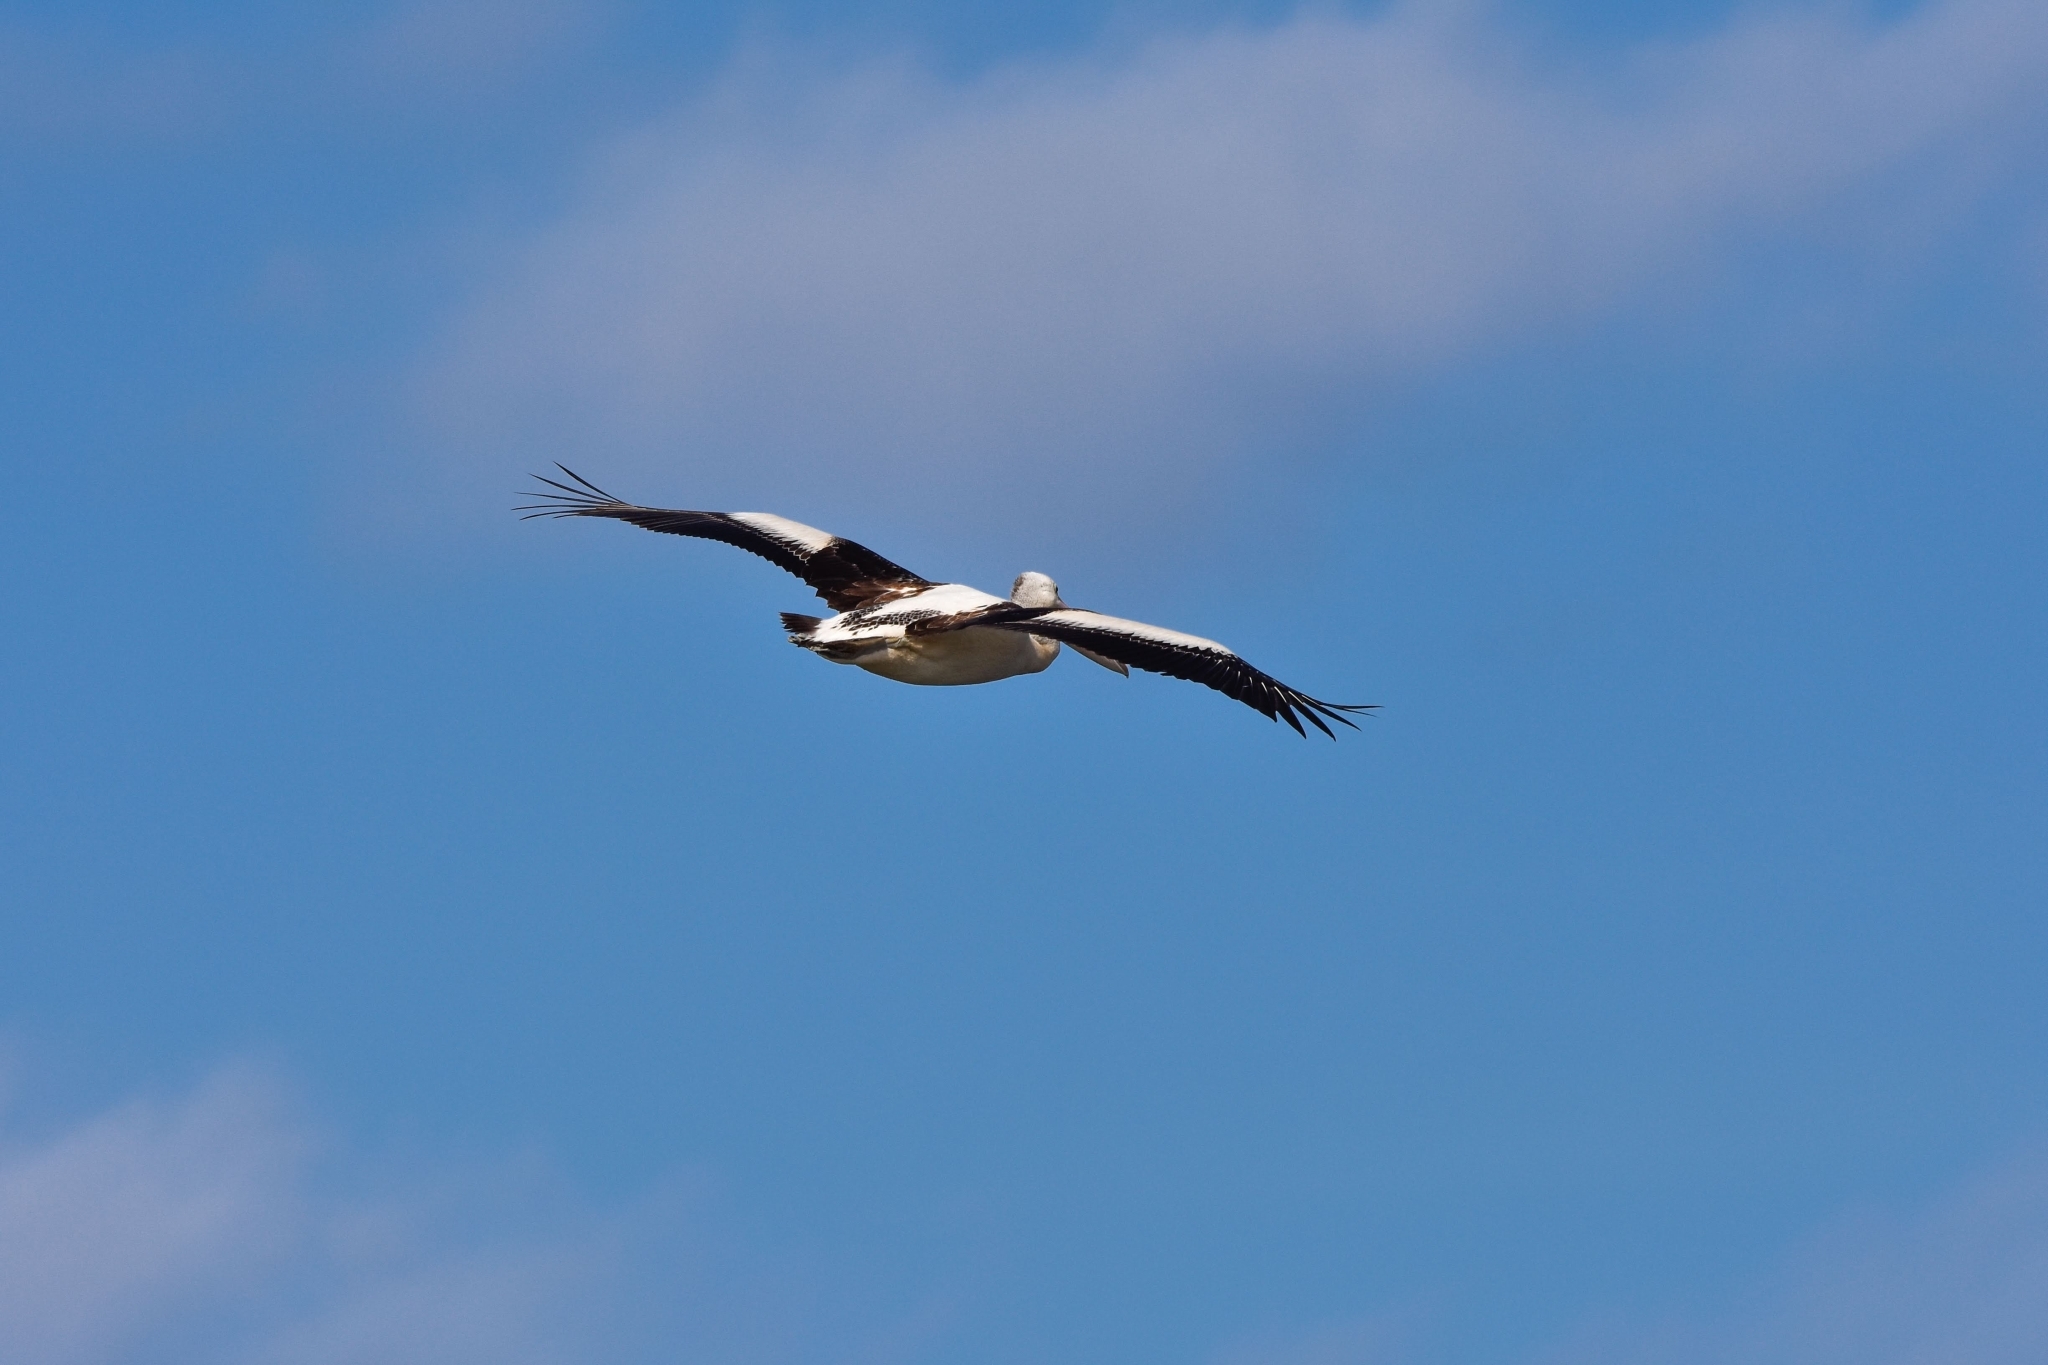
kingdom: Animalia
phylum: Chordata
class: Aves
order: Pelecaniformes
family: Pelecanidae
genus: Pelecanus
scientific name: Pelecanus conspicillatus
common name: Australian pelican
